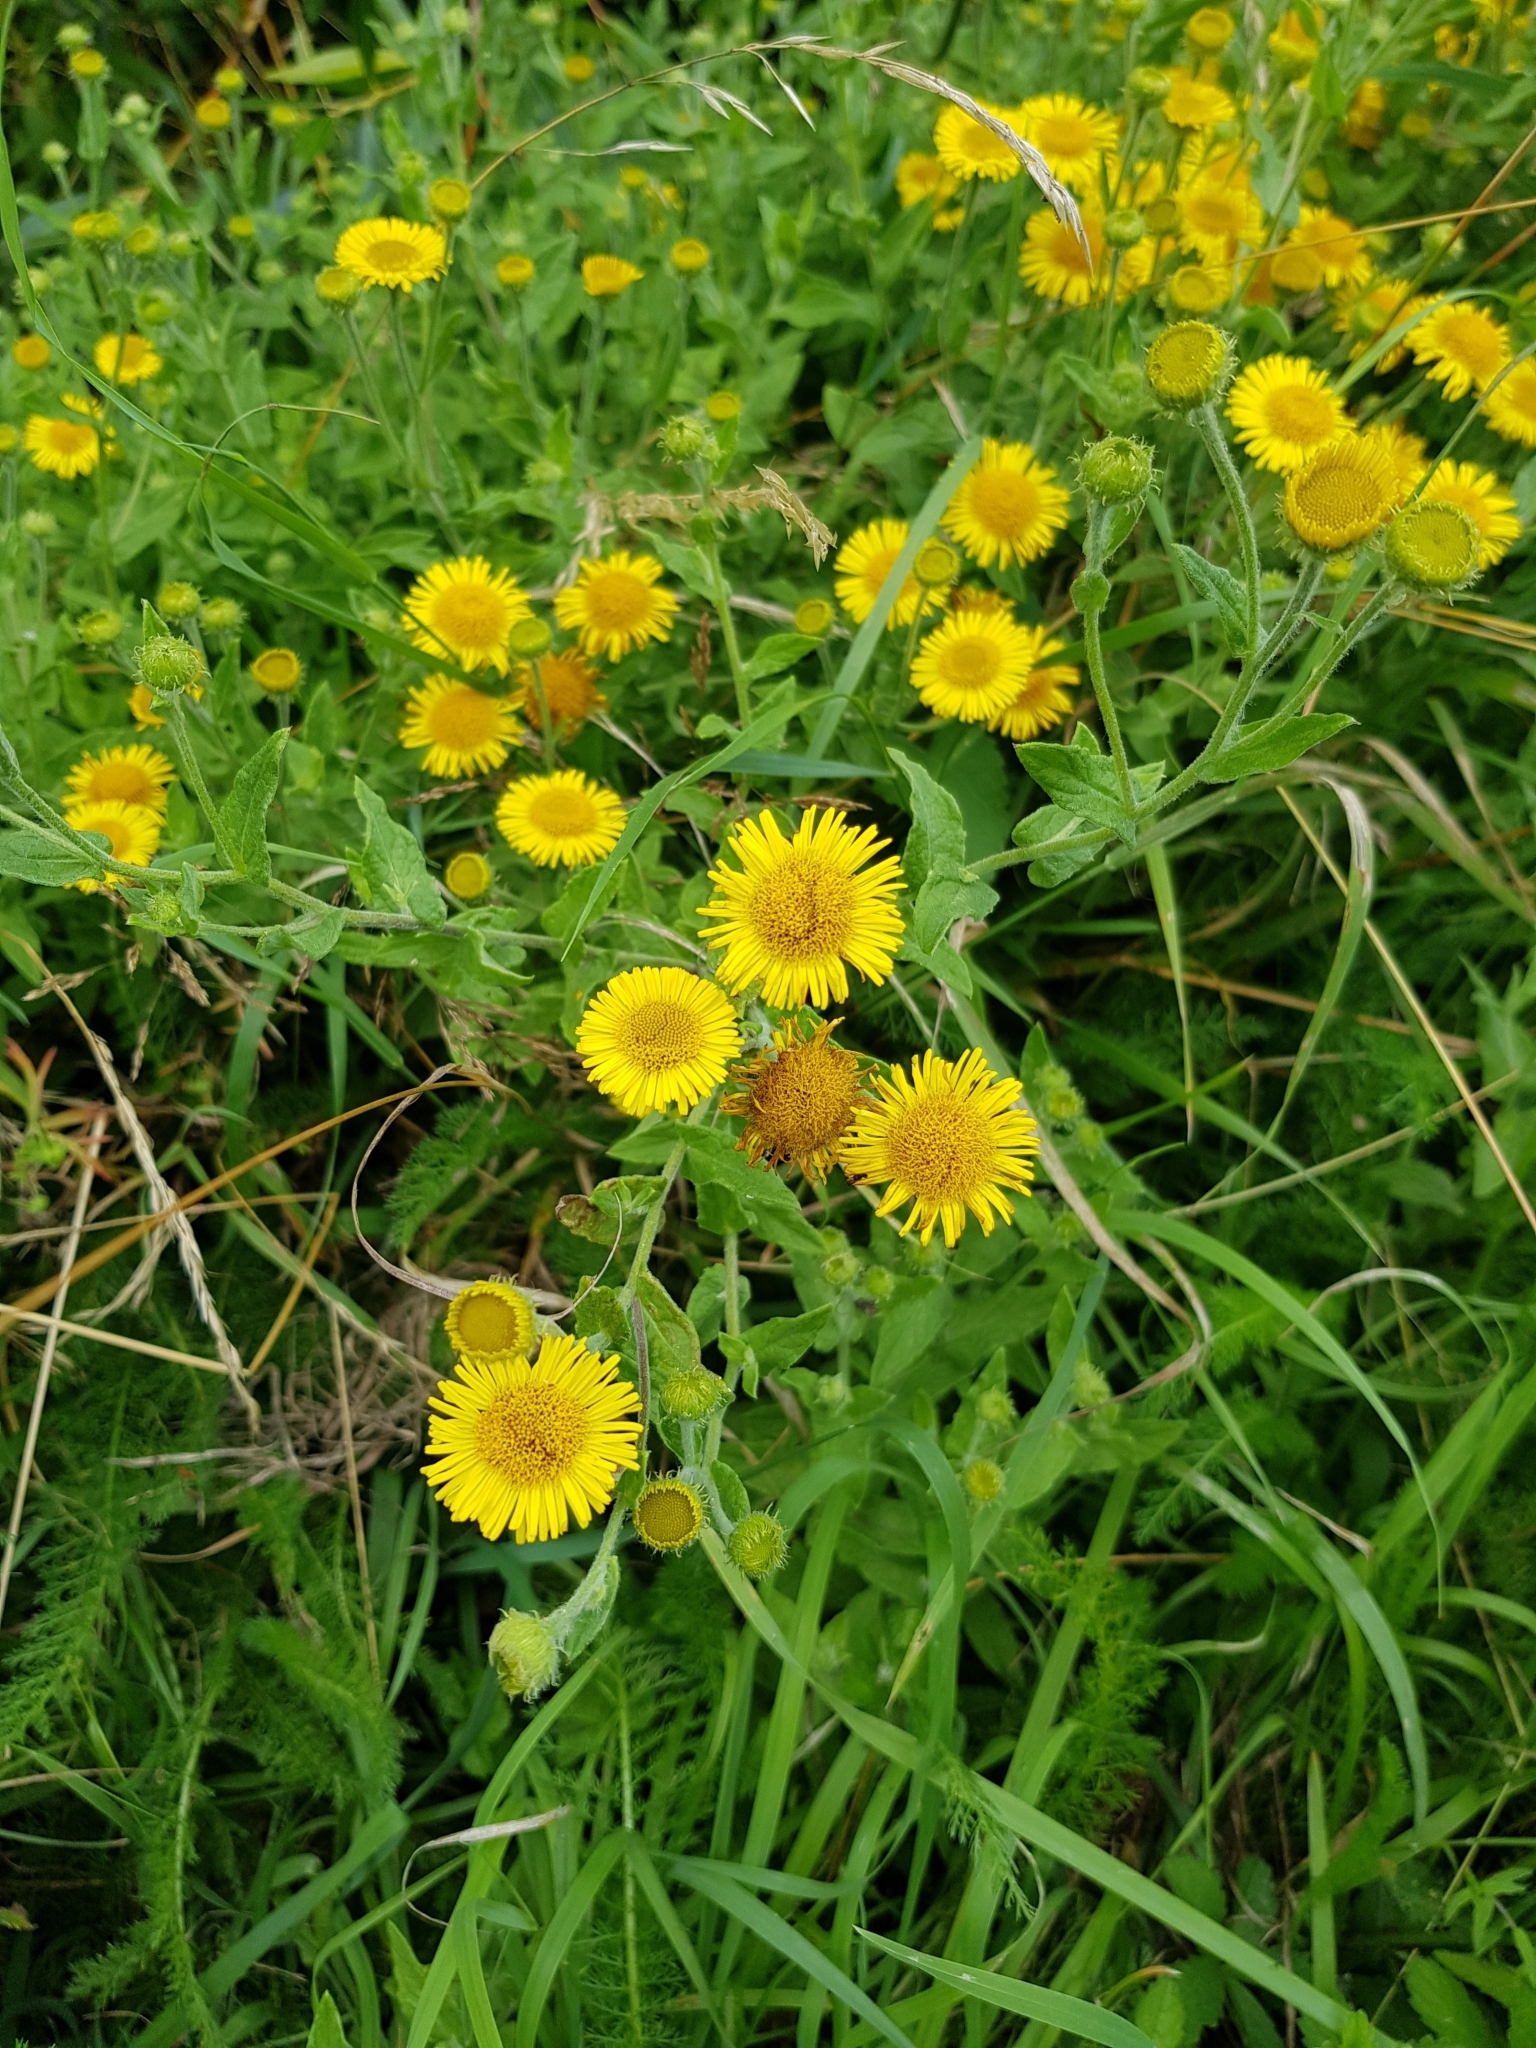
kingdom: Plantae
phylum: Tracheophyta
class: Magnoliopsida
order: Asterales
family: Asteraceae
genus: Pulicaria
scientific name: Pulicaria dysenterica
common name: Common fleabane
